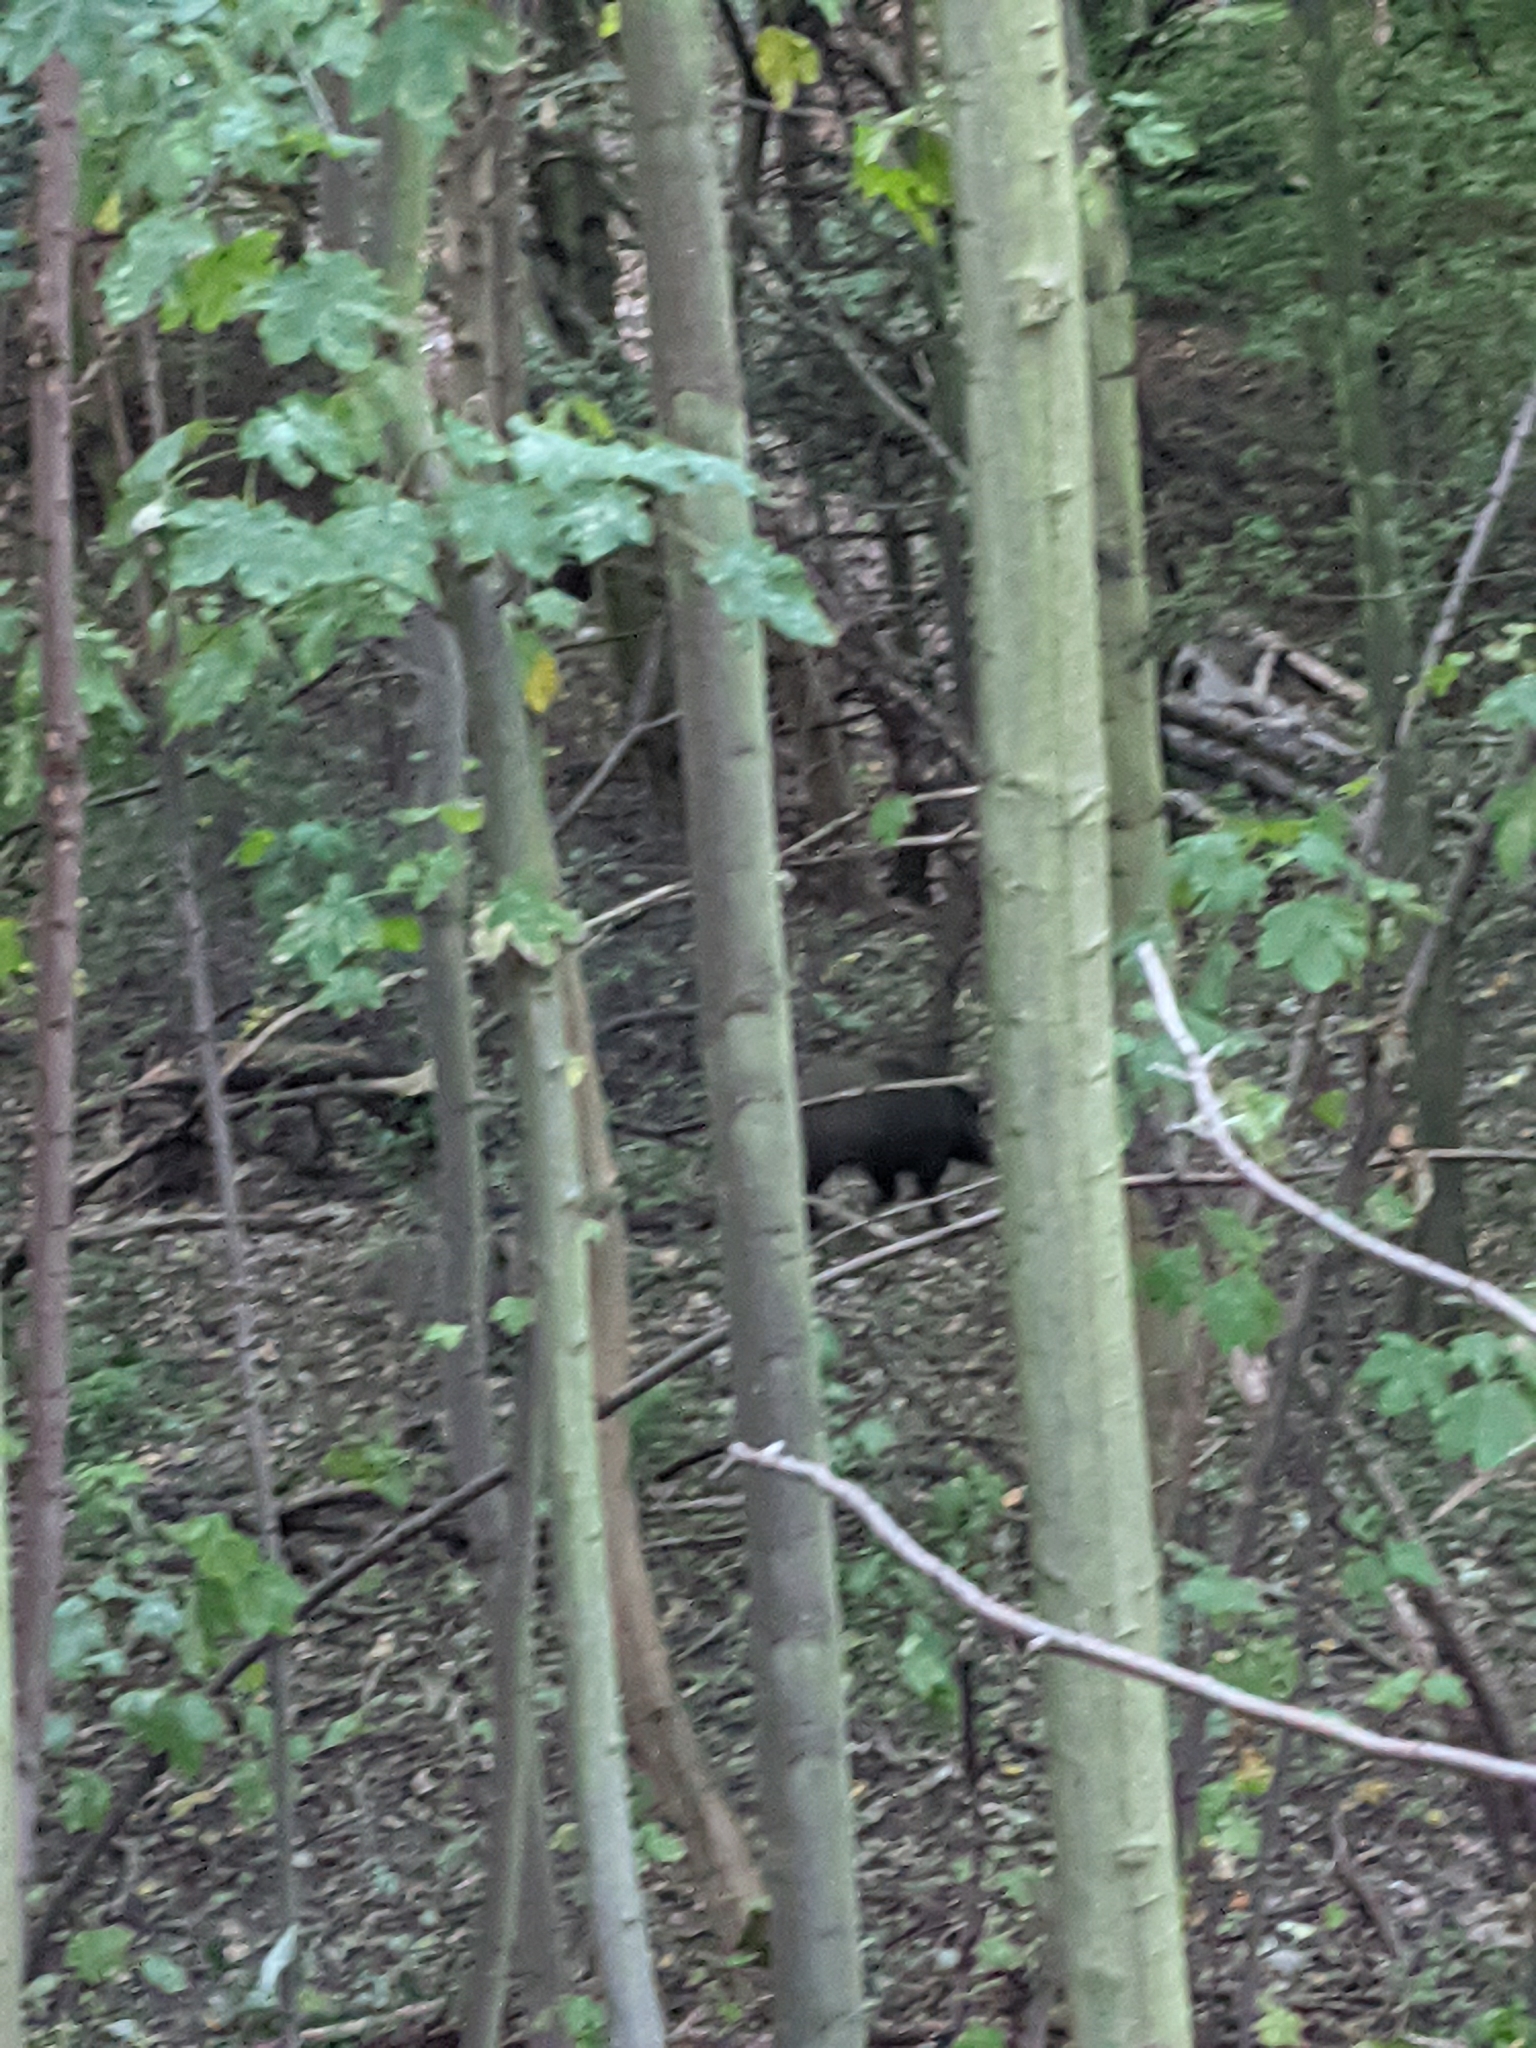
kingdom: Animalia
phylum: Chordata
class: Mammalia
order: Artiodactyla
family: Suidae
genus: Sus
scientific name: Sus scrofa
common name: Wild boar
